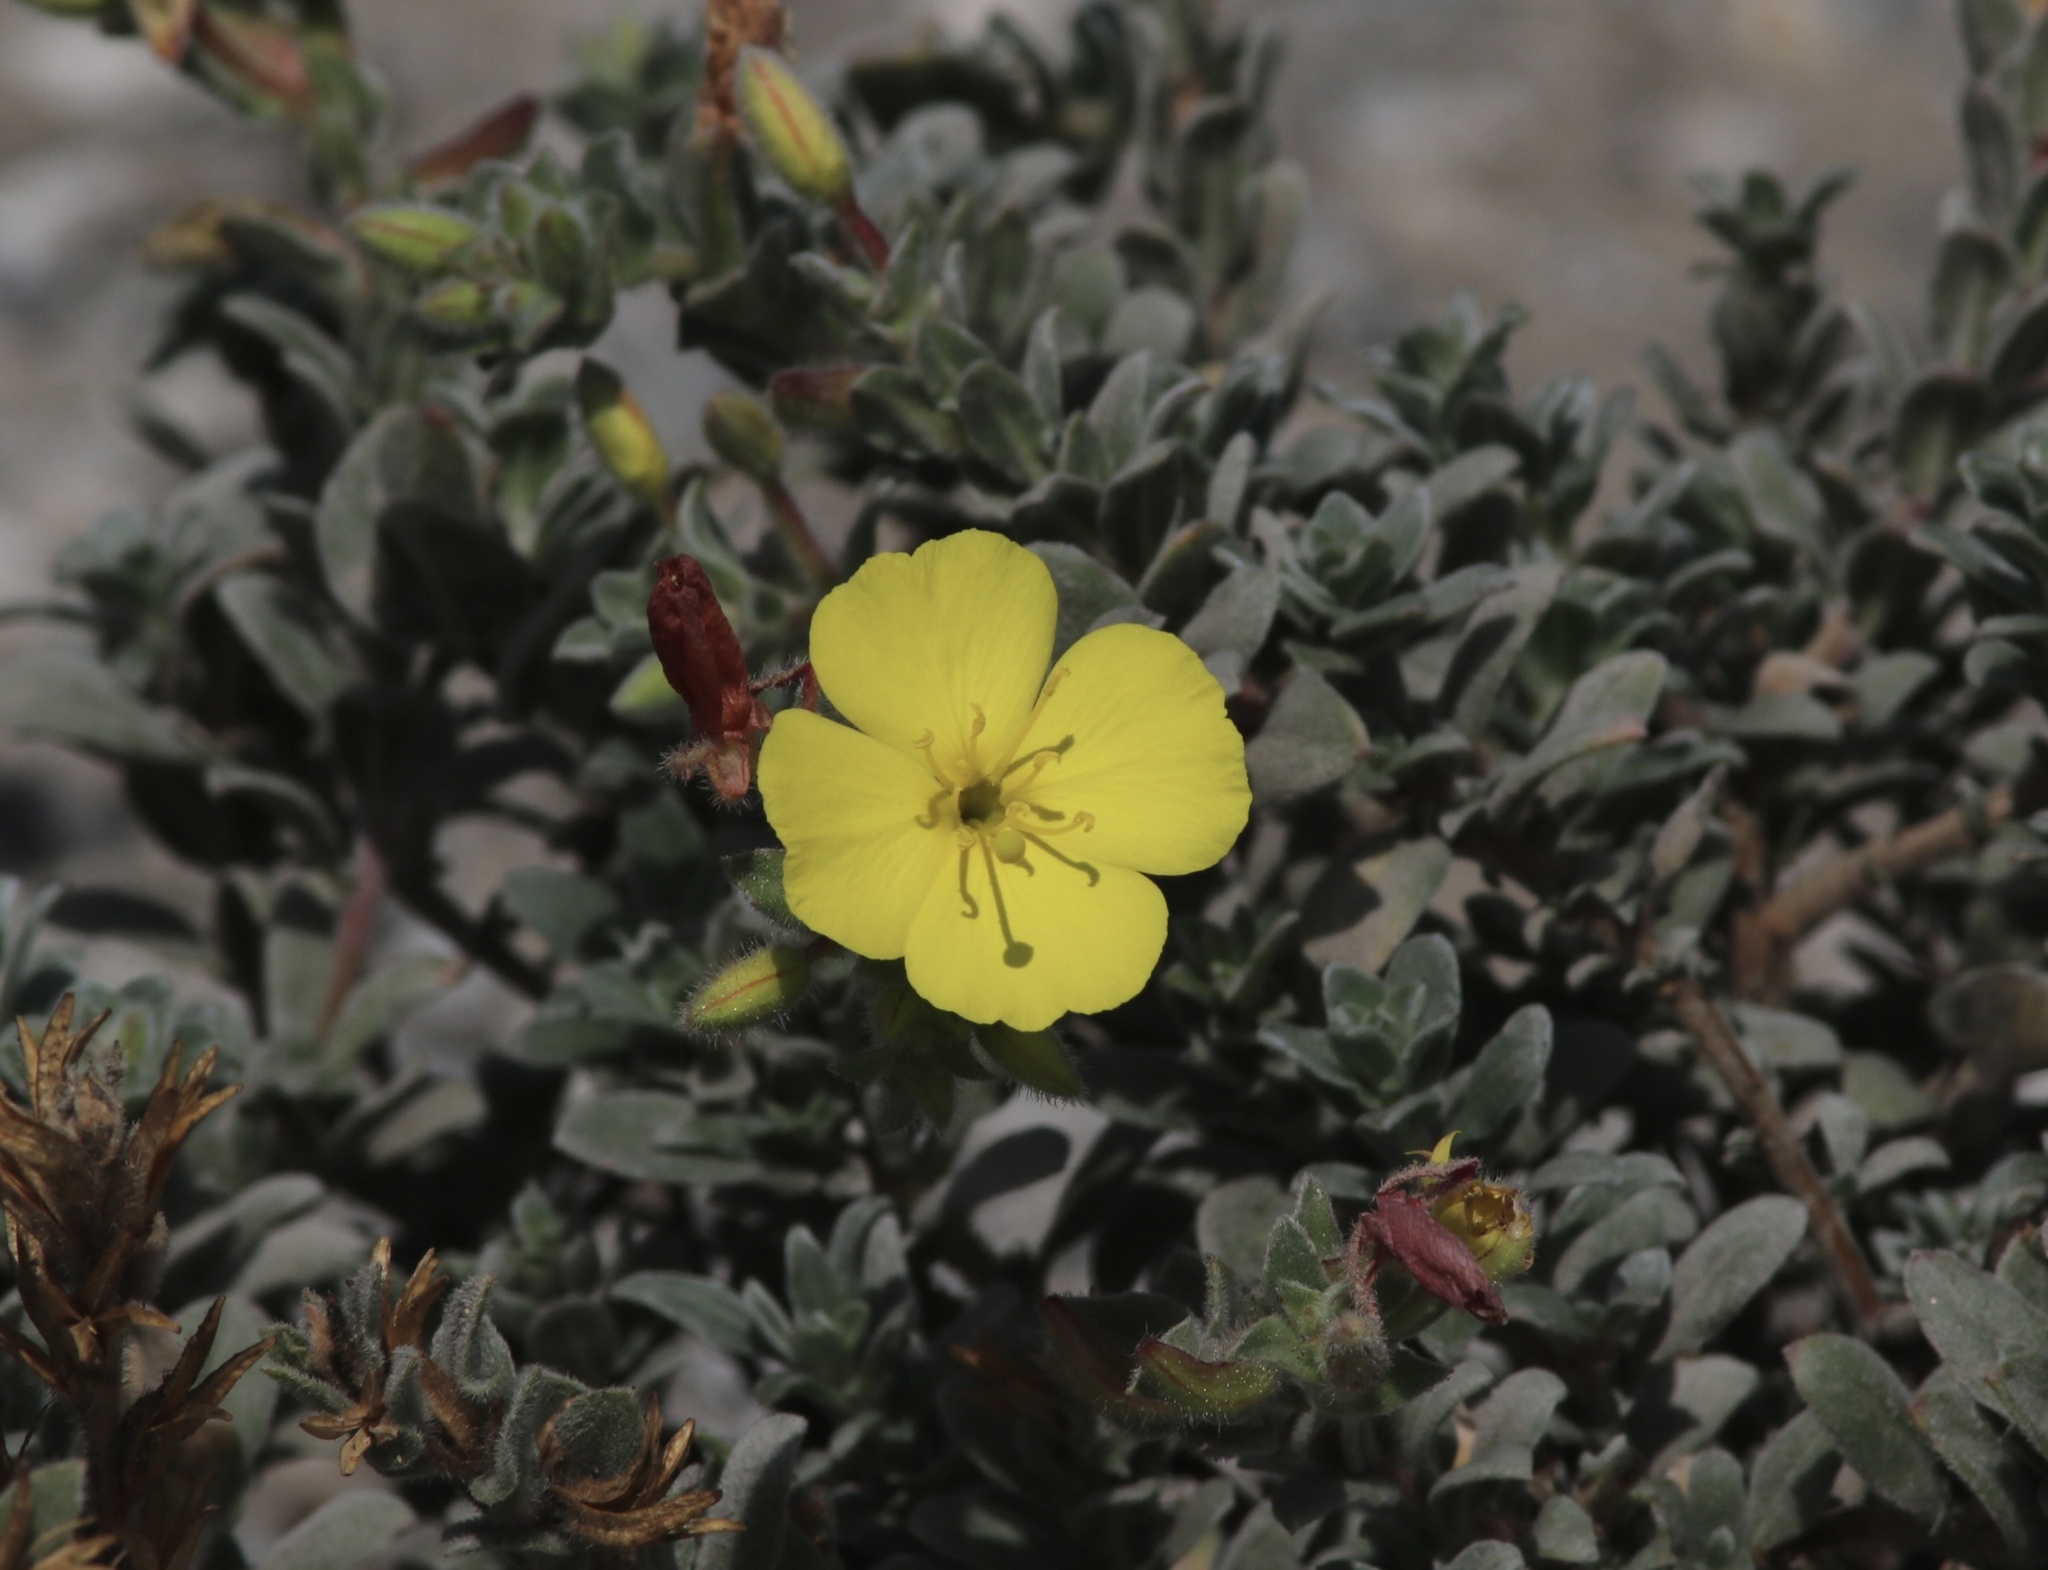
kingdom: Plantae
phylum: Tracheophyta
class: Magnoliopsida
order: Myrtales
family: Onagraceae
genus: Camissoniopsis
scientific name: Camissoniopsis cheiranthifolia
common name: Beach suncup
